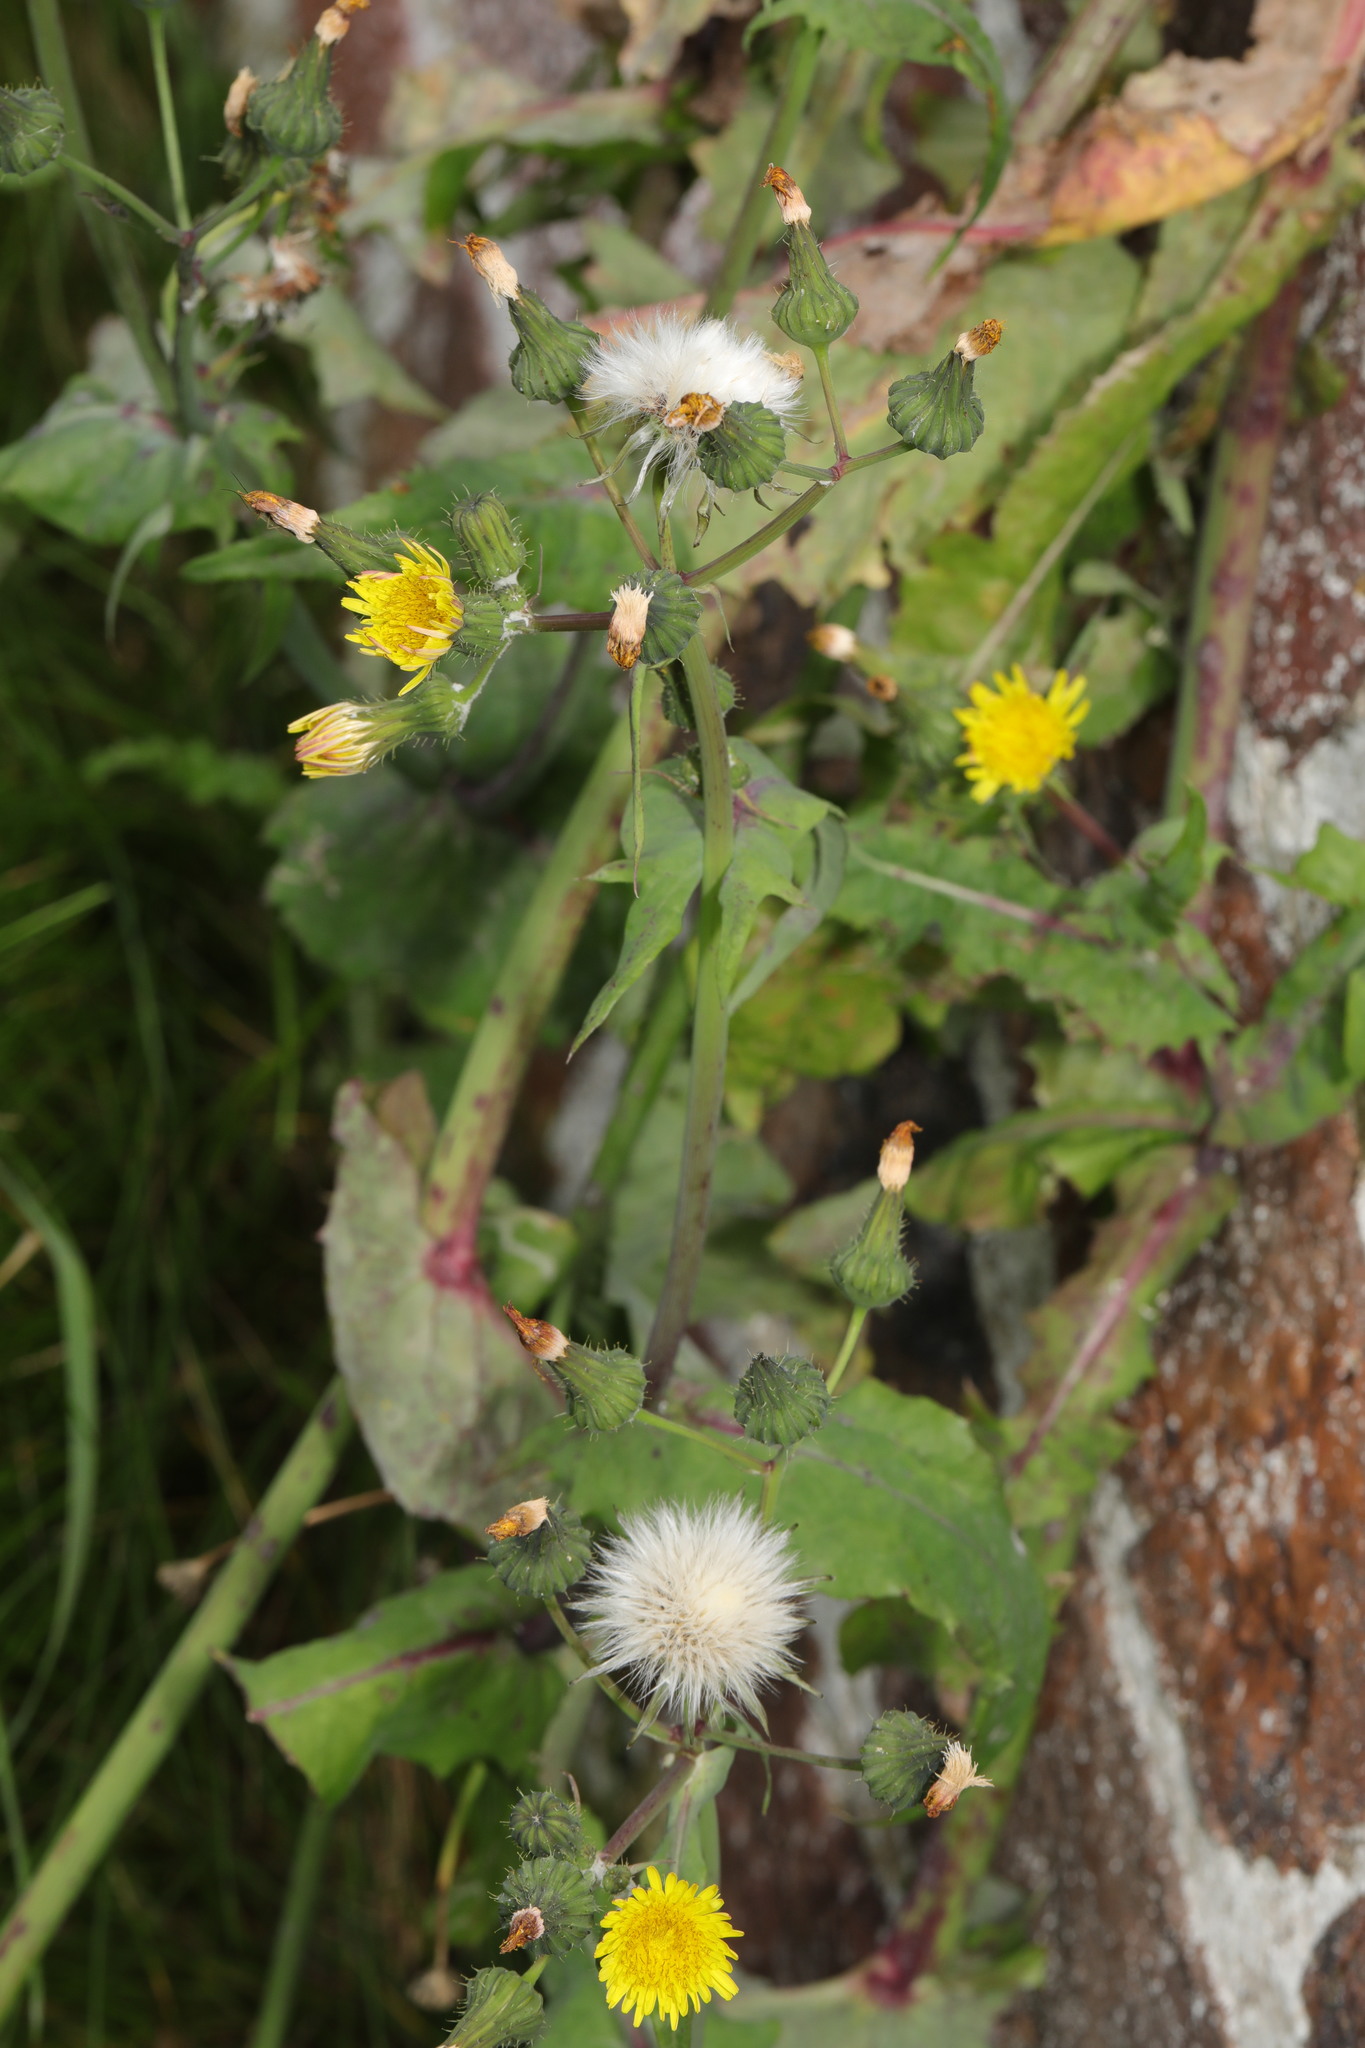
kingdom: Plantae
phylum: Tracheophyta
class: Magnoliopsida
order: Asterales
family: Asteraceae
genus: Sonchus
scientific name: Sonchus oleraceus
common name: Common sowthistle
